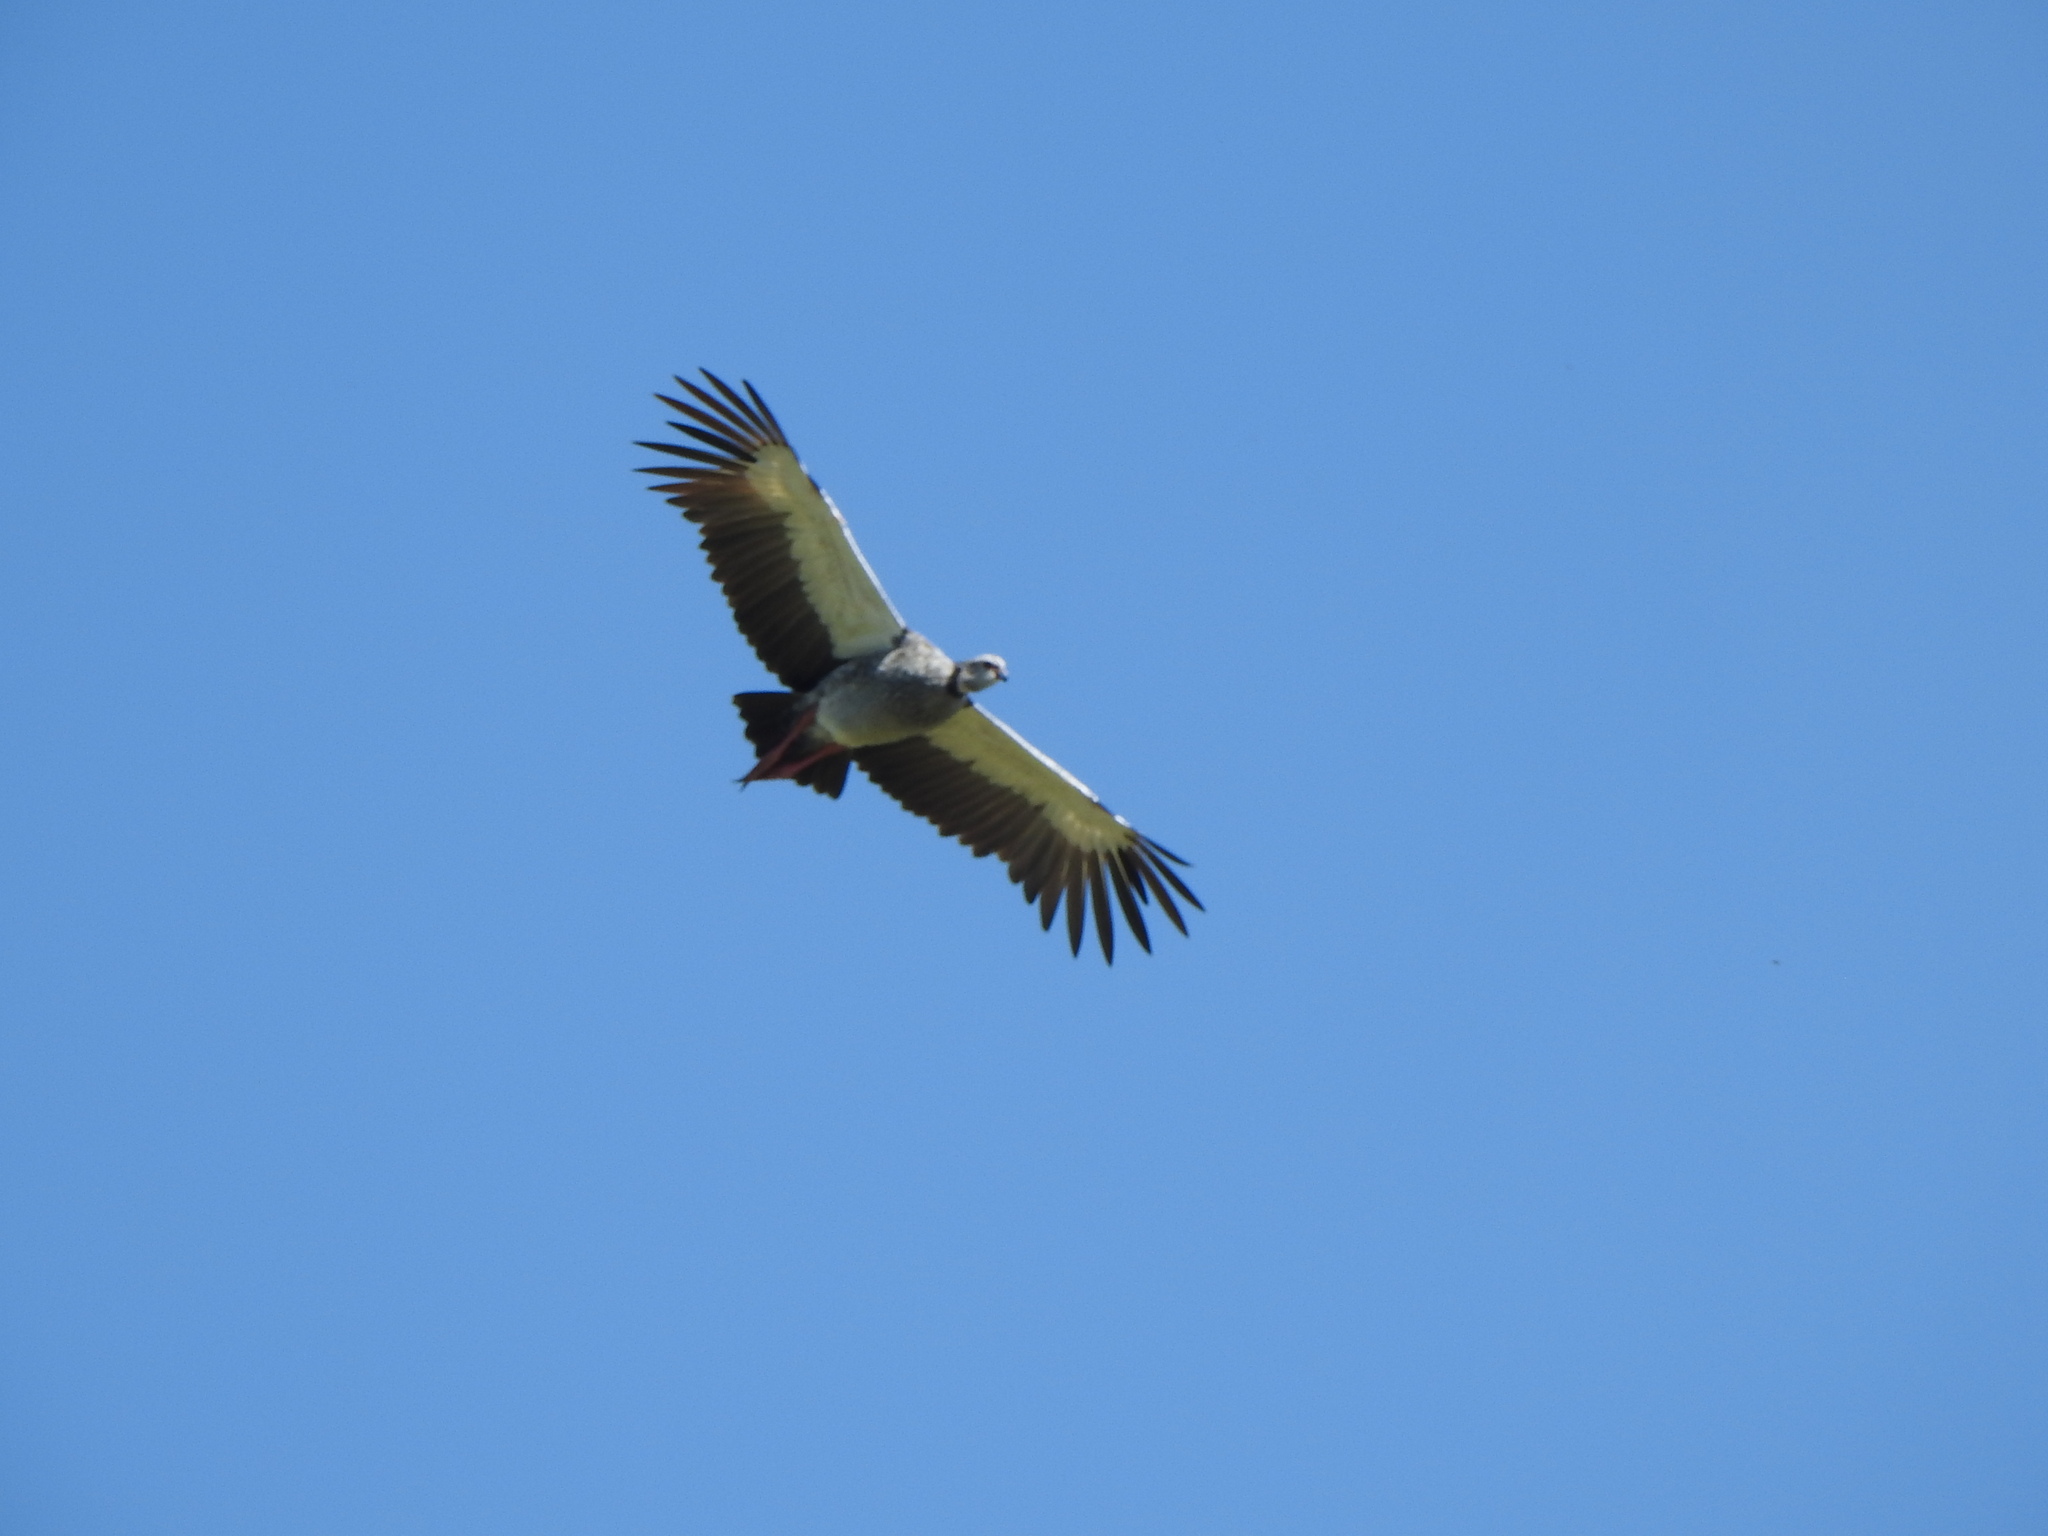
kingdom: Animalia
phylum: Chordata
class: Aves
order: Anseriformes
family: Anhimidae
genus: Chauna
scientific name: Chauna torquata
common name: Southern screamer
